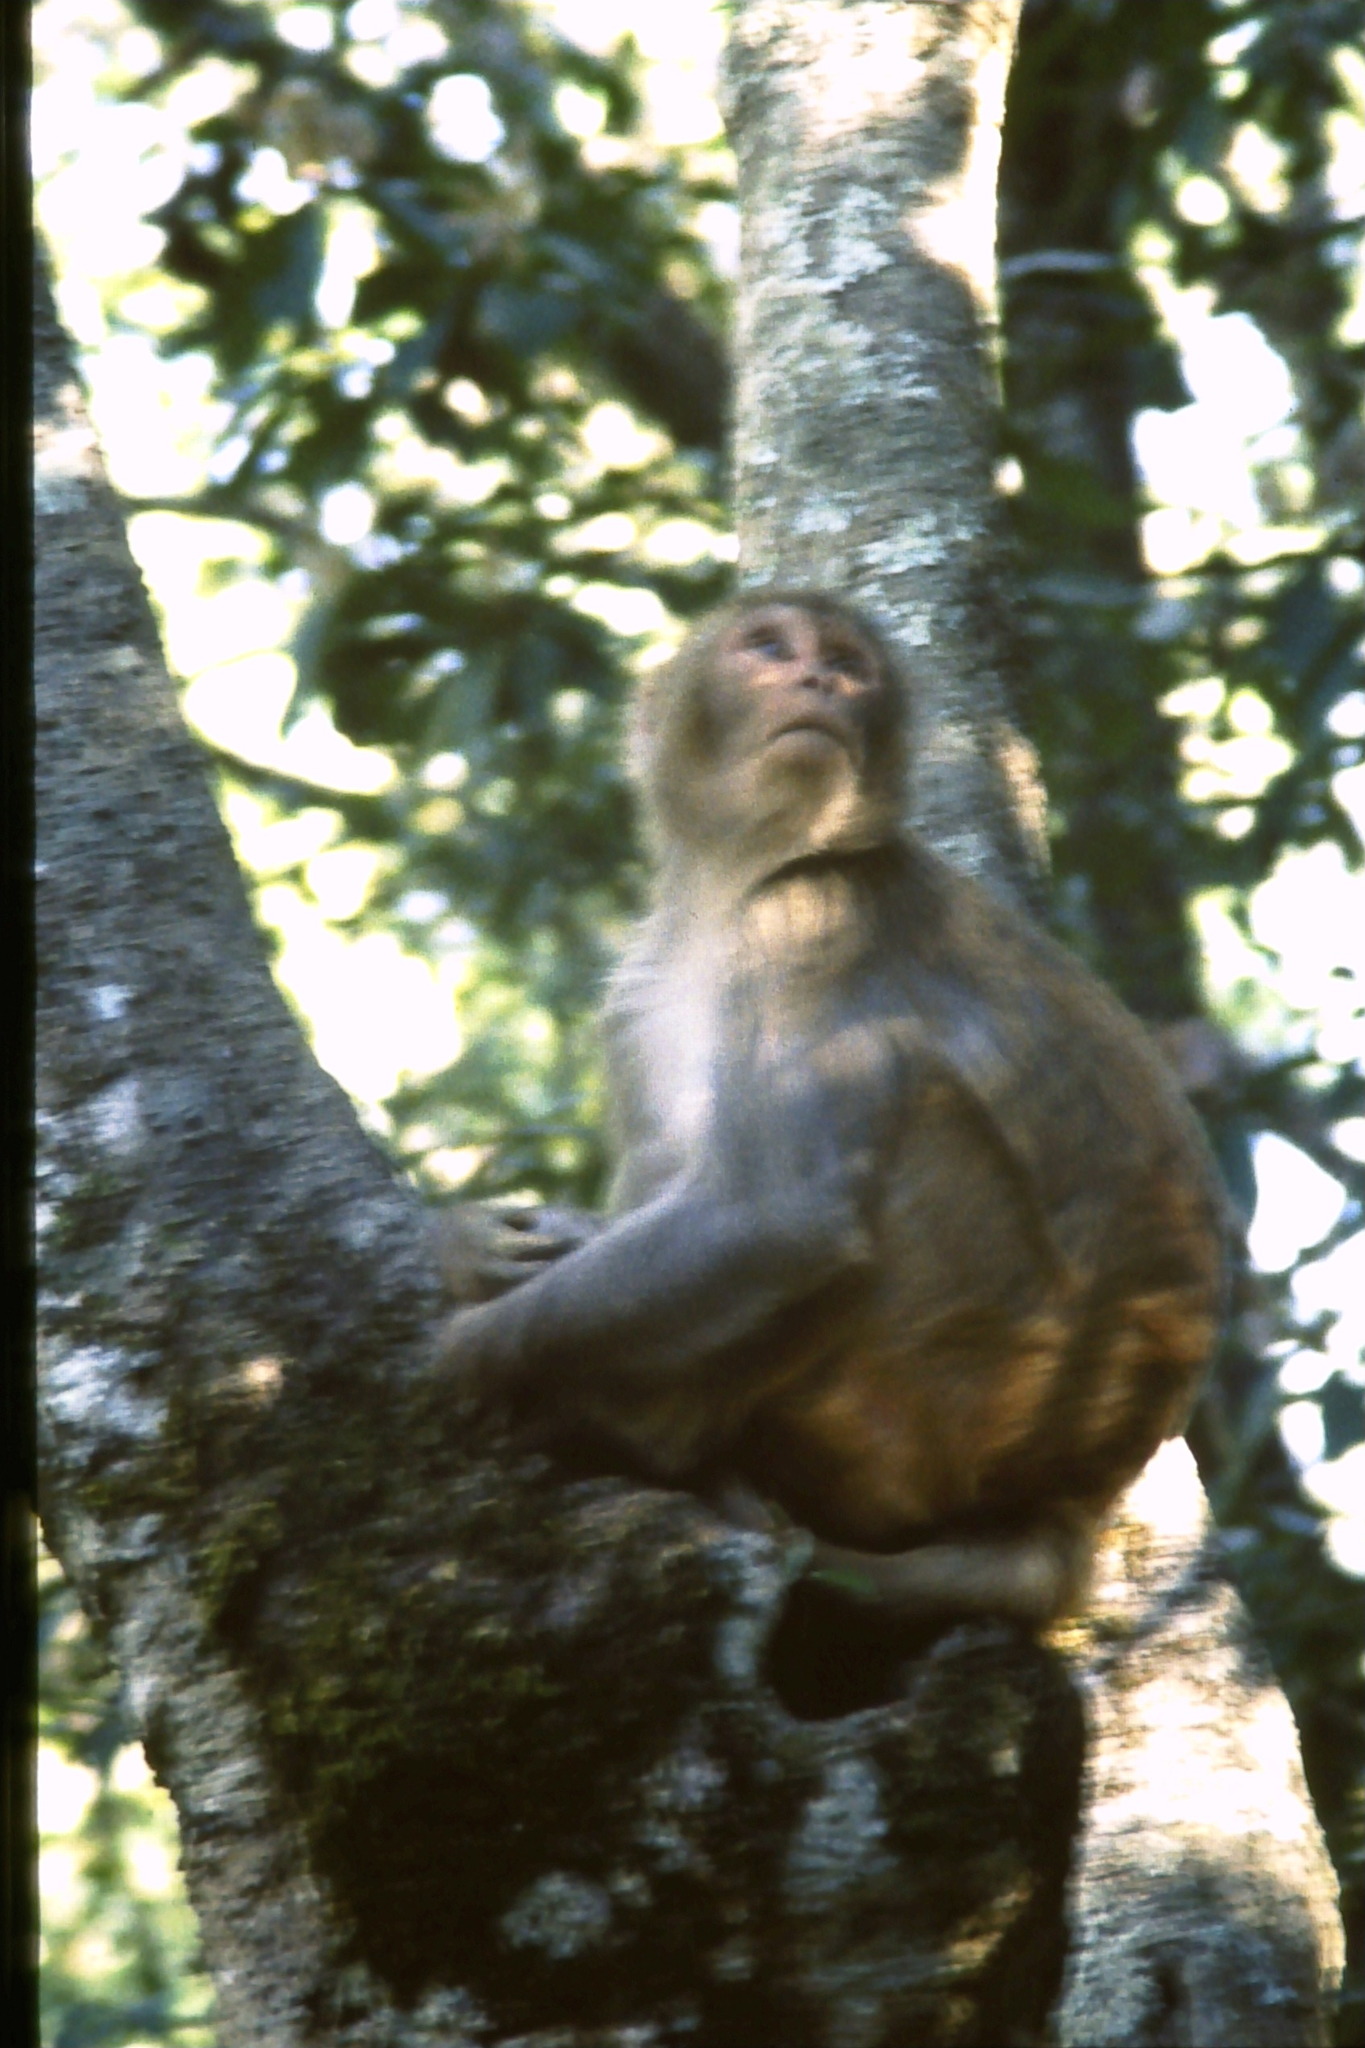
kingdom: Animalia
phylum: Chordata
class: Mammalia
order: Primates
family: Cercopithecidae
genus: Macaca
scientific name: Macaca mulatta
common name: Rhesus monkey
